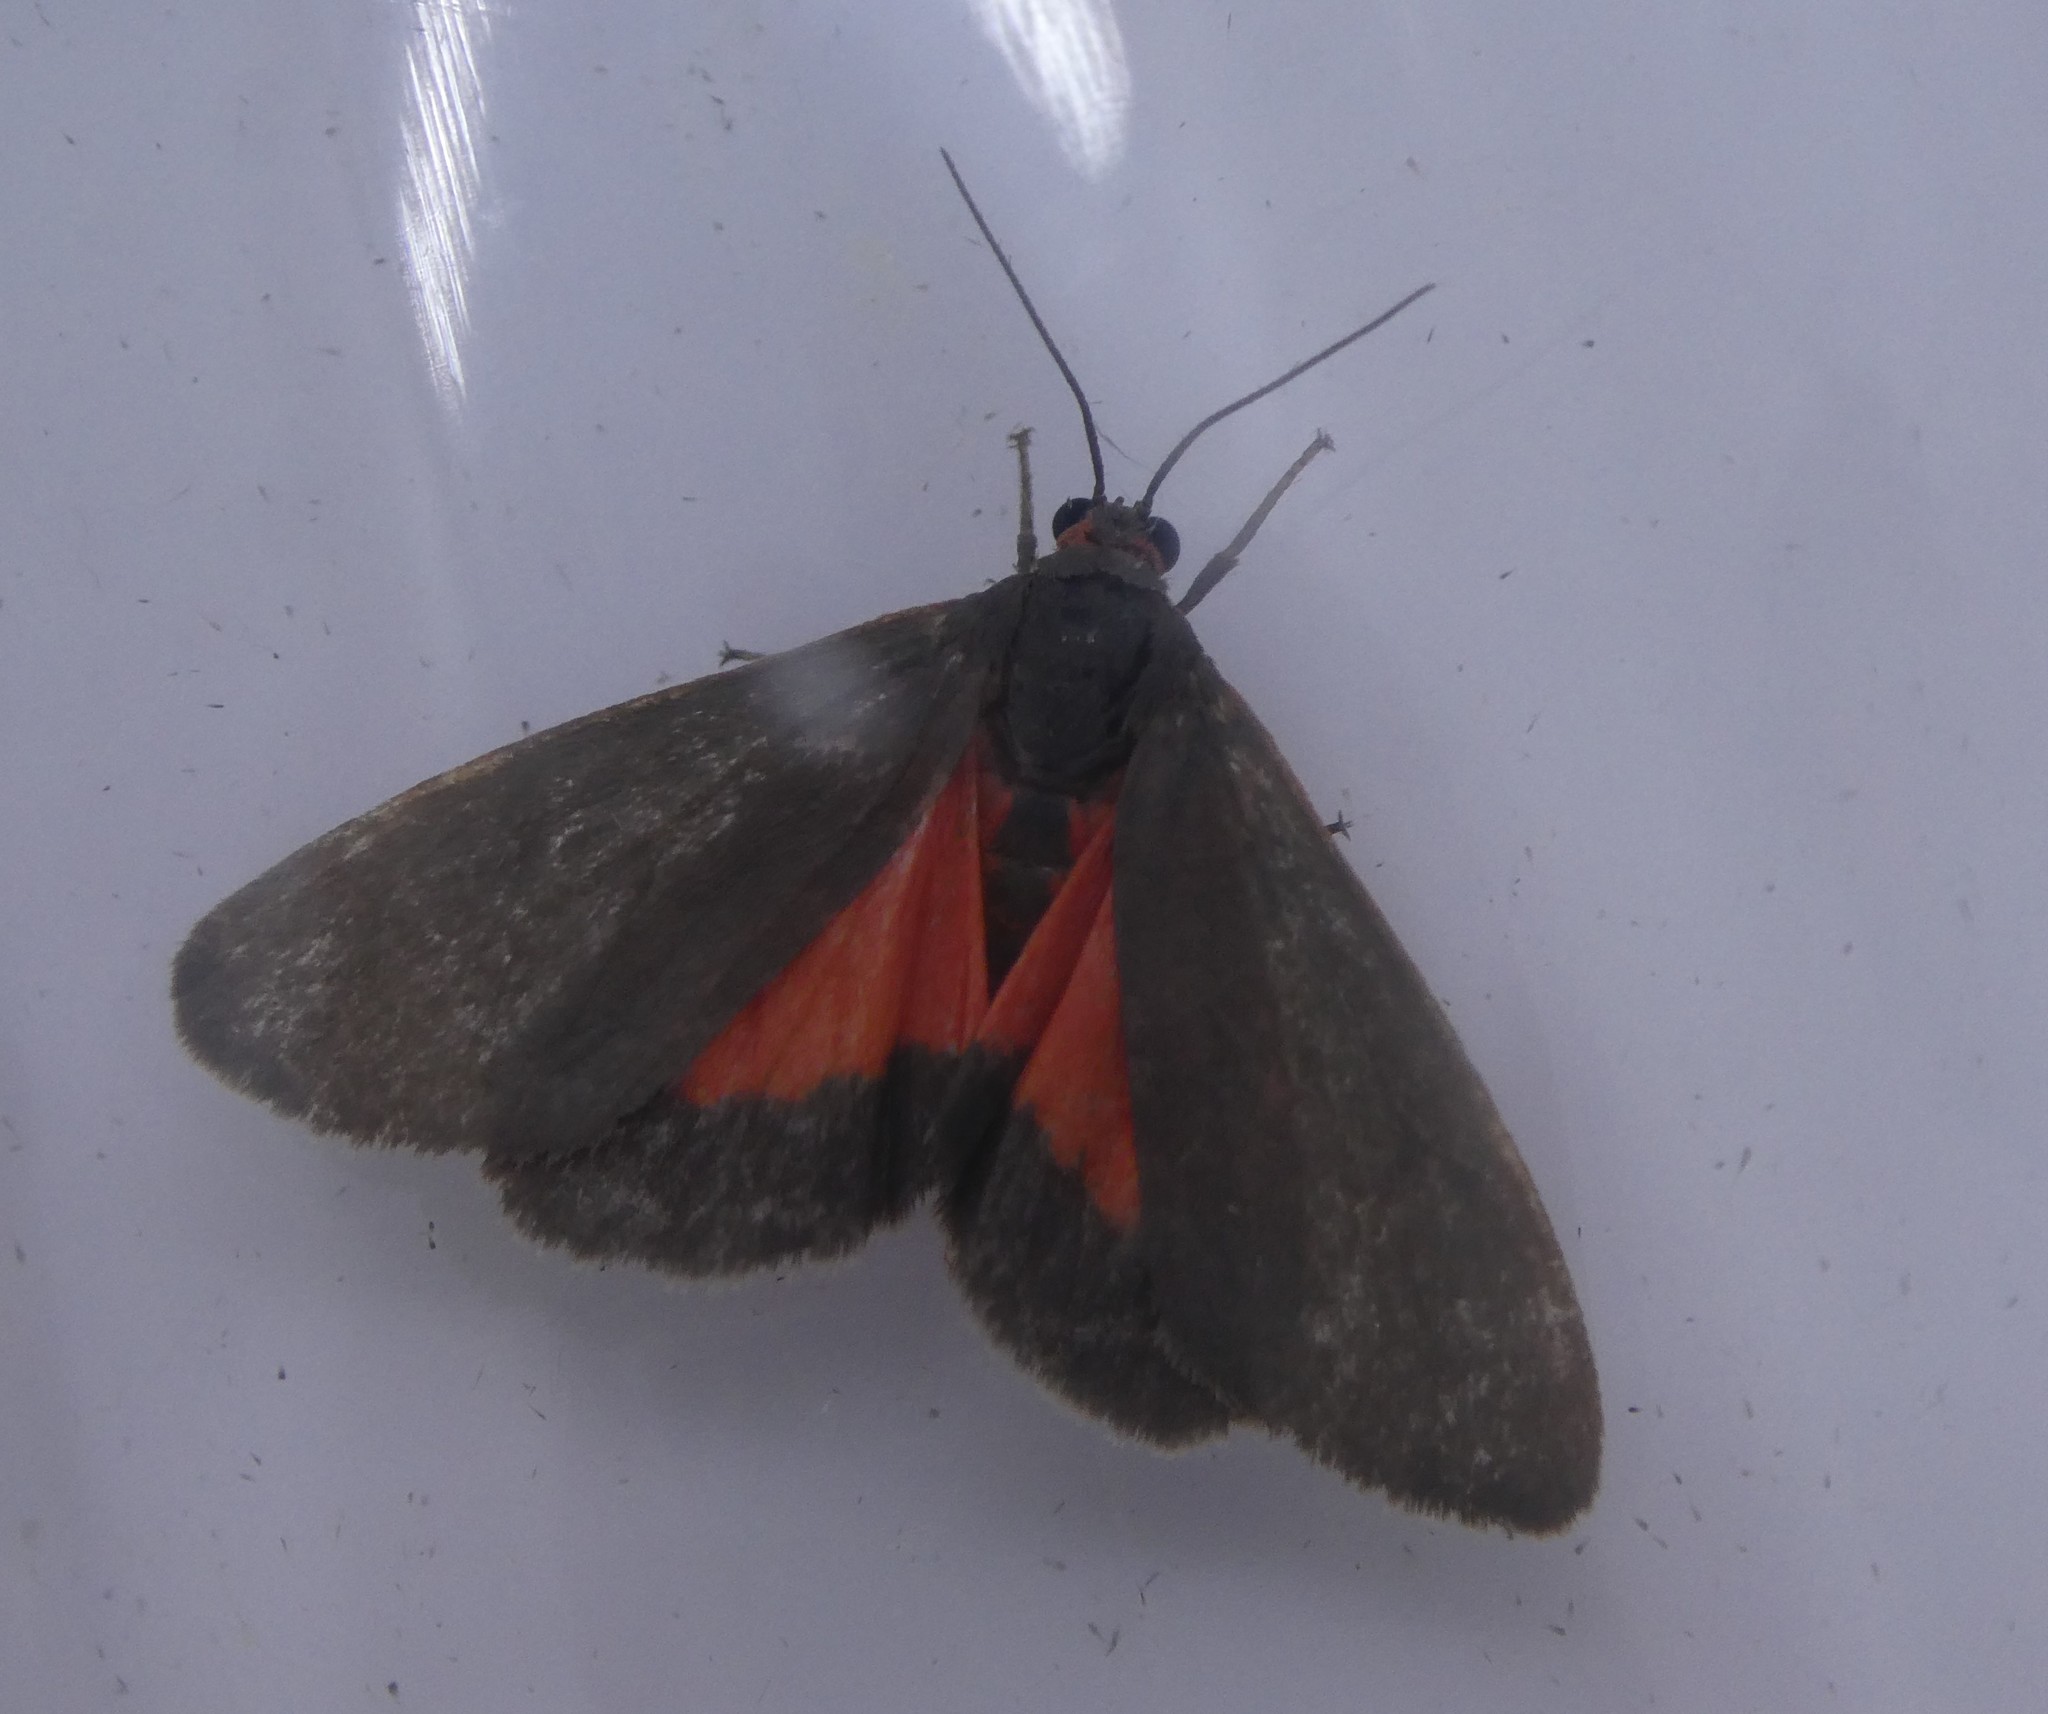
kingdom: Animalia
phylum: Arthropoda
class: Insecta
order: Lepidoptera
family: Erebidae
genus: Virbia
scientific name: Virbia laeta
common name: Joyful holomelina moth
